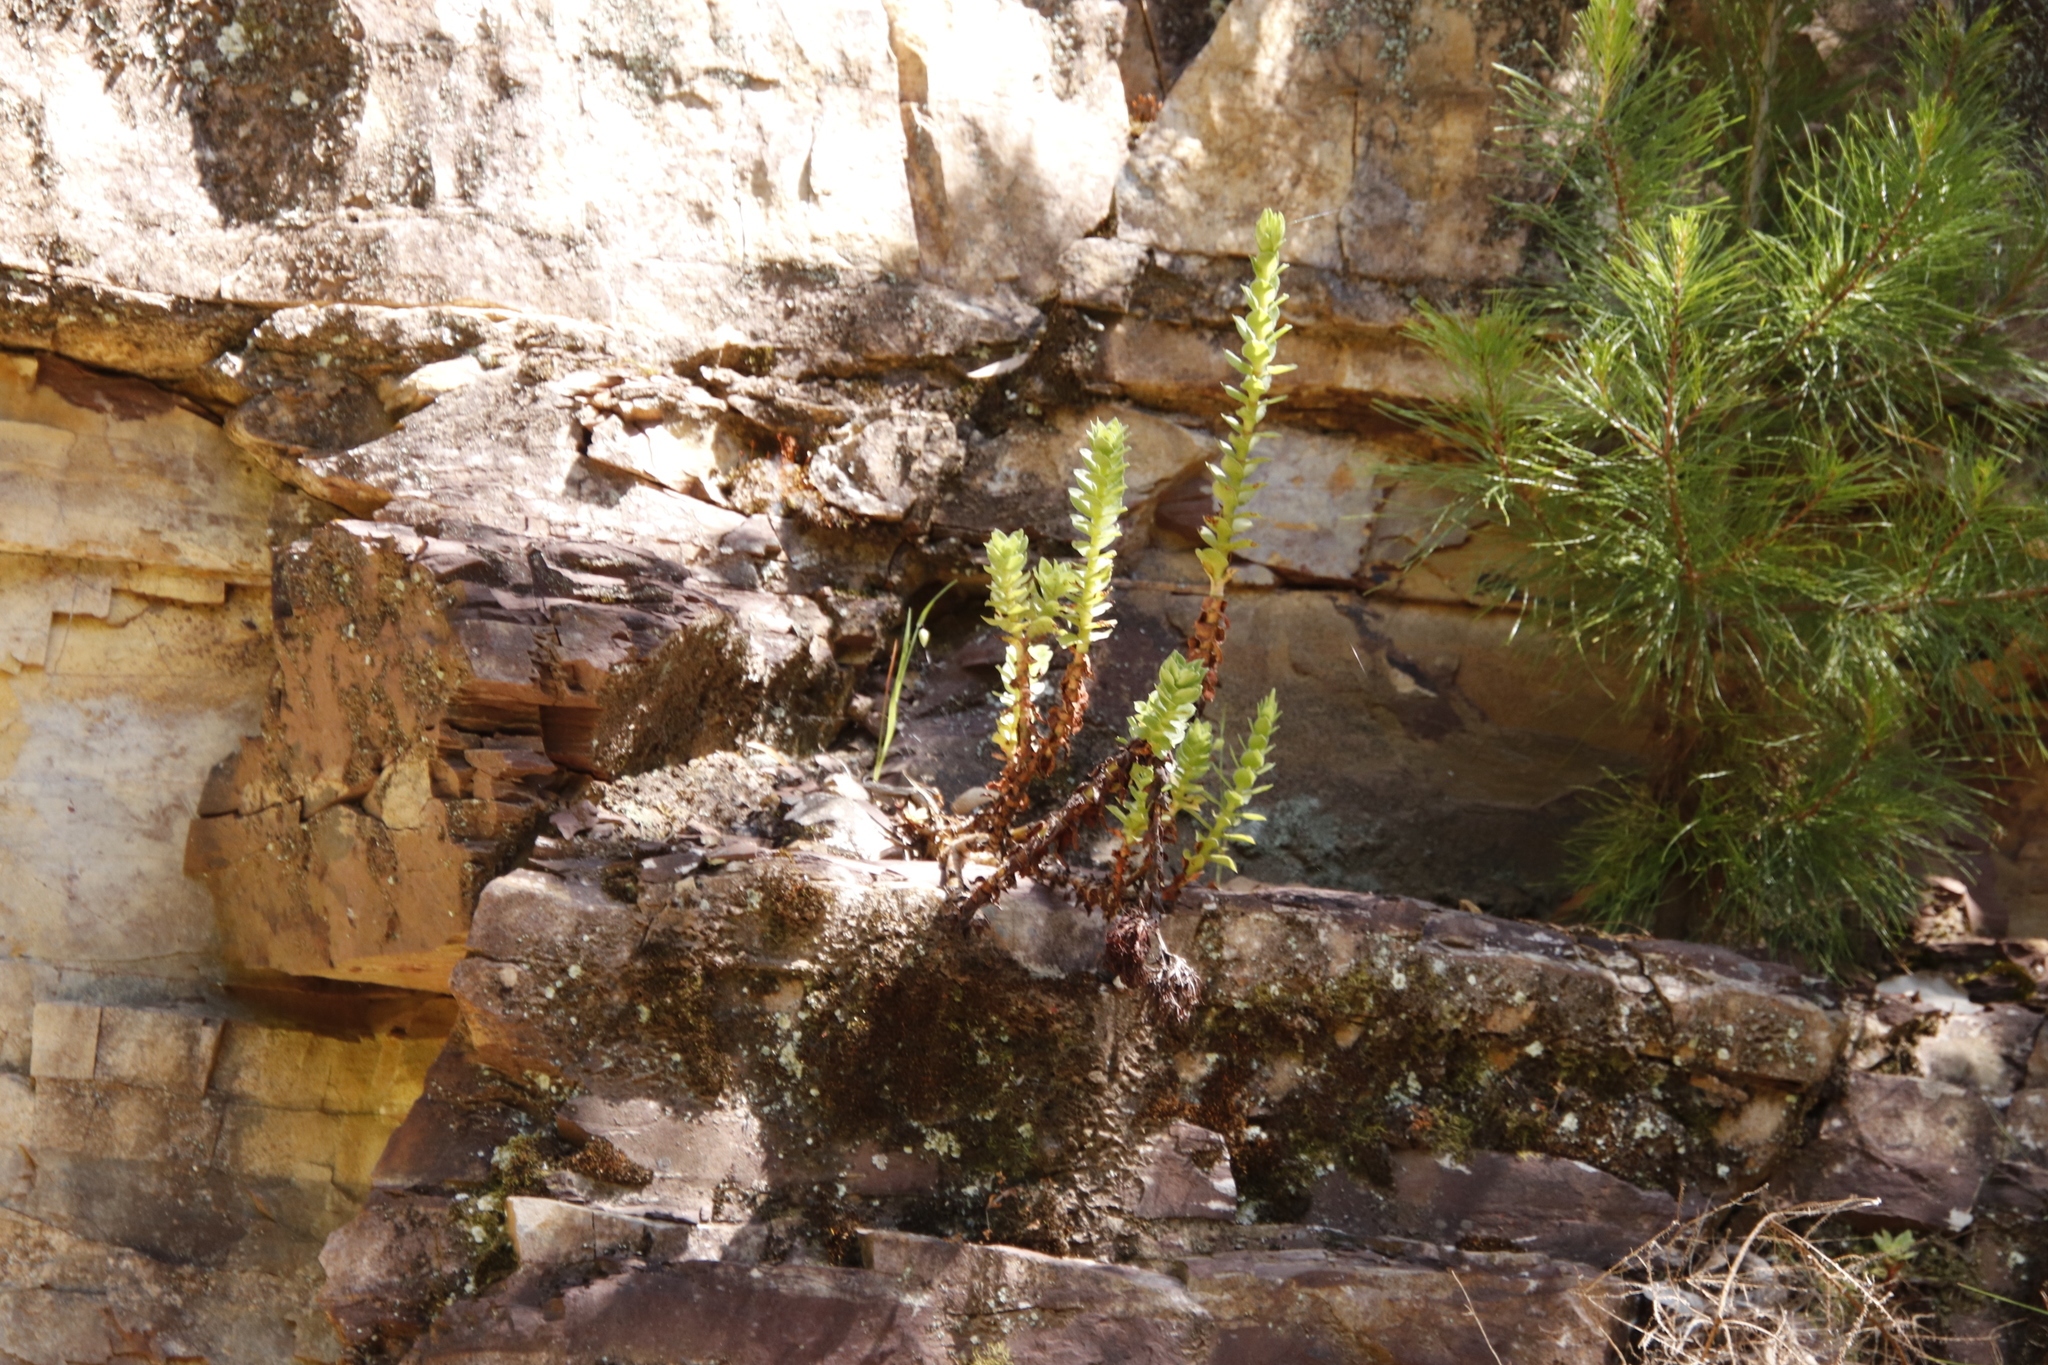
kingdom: Plantae
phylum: Tracheophyta
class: Magnoliopsida
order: Saxifragales
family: Crassulaceae
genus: Crassula
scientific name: Crassula coccinea
